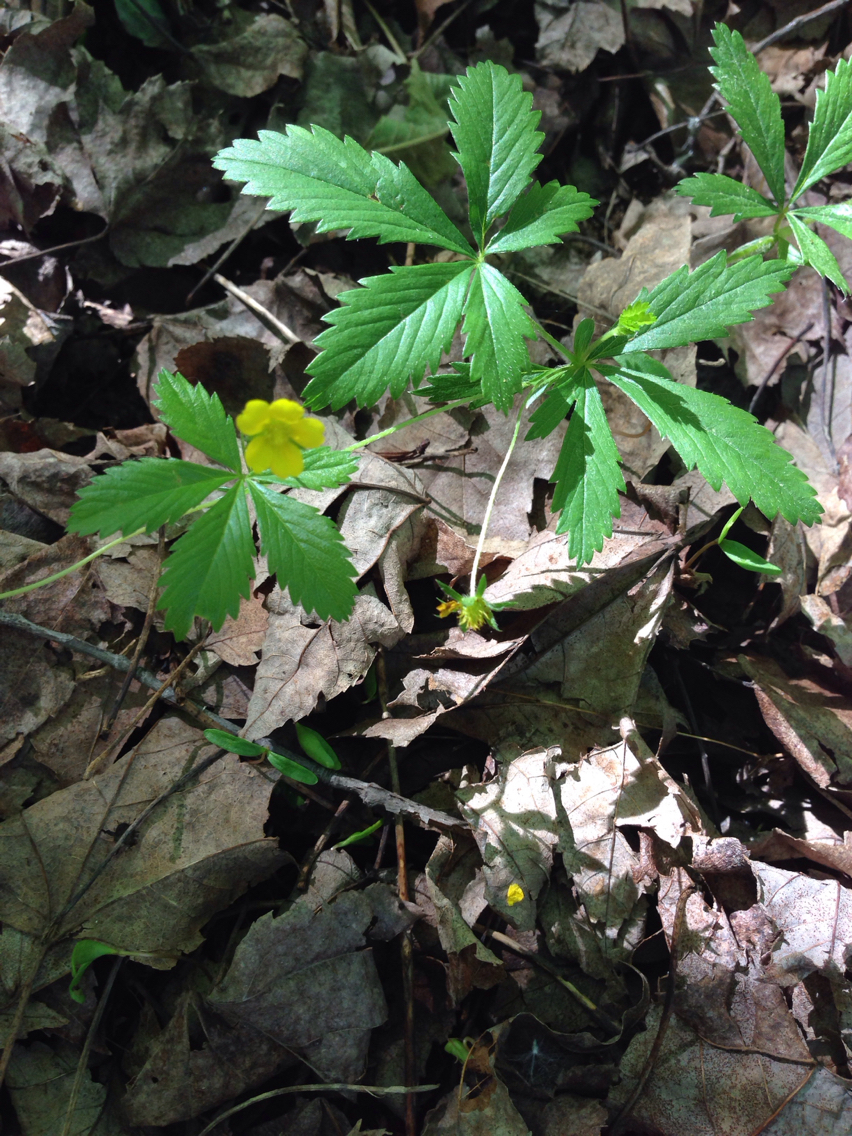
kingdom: Plantae
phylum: Tracheophyta
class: Magnoliopsida
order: Rosales
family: Rosaceae
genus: Potentilla
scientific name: Potentilla simplex
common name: Old field cinquefoil
